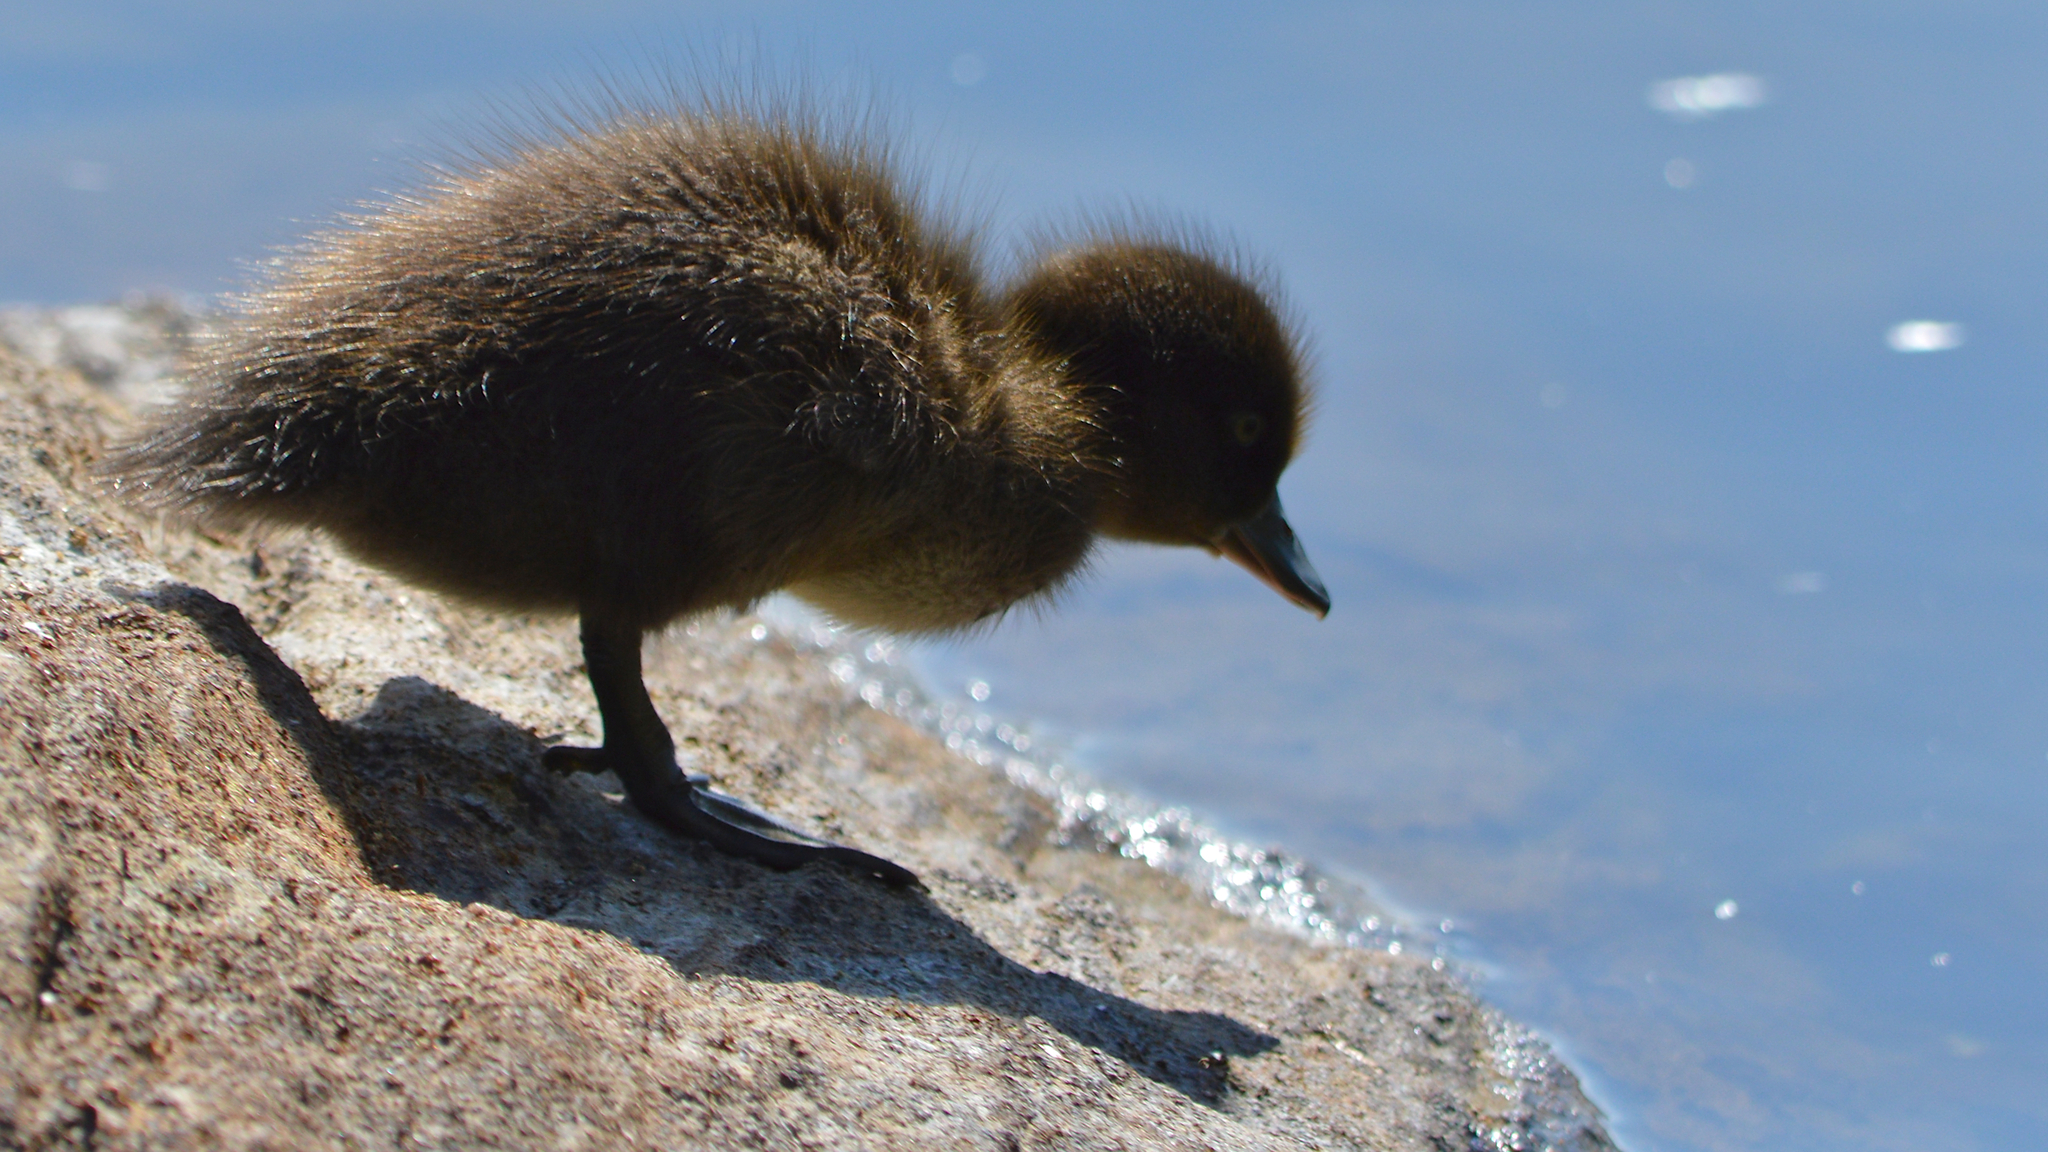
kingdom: Animalia
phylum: Chordata
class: Aves
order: Anseriformes
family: Anatidae
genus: Aythya
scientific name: Aythya fuligula
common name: Tufted duck
